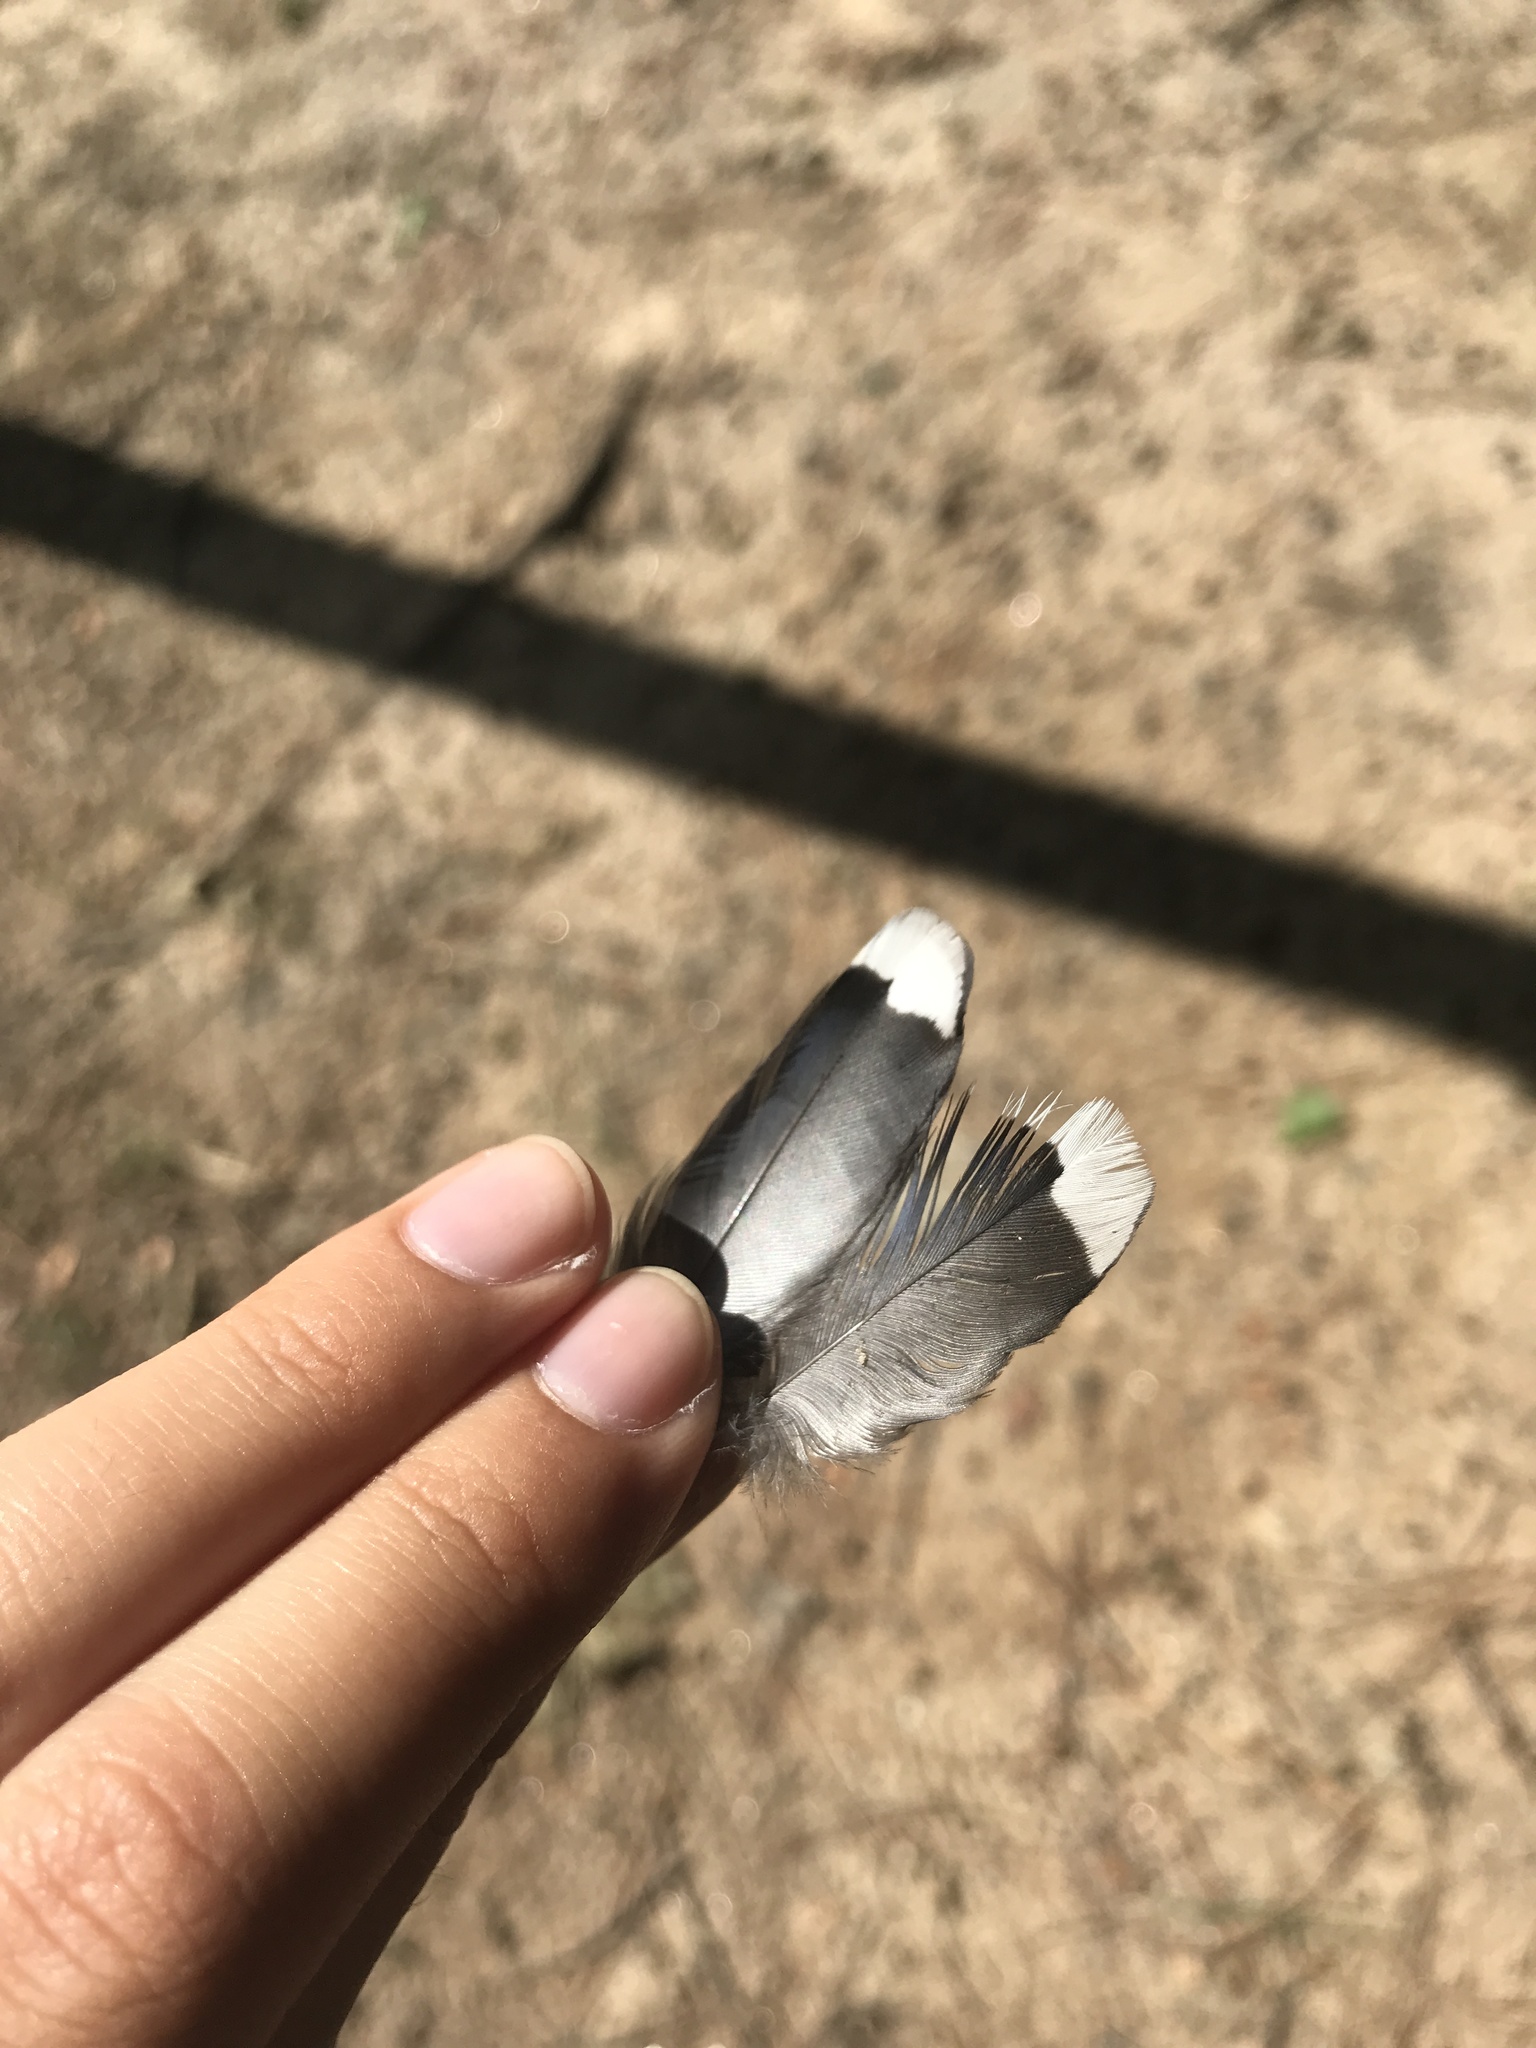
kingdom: Animalia
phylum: Chordata
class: Aves
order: Passeriformes
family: Corvidae
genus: Cyanocitta
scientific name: Cyanocitta cristata
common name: Blue jay
